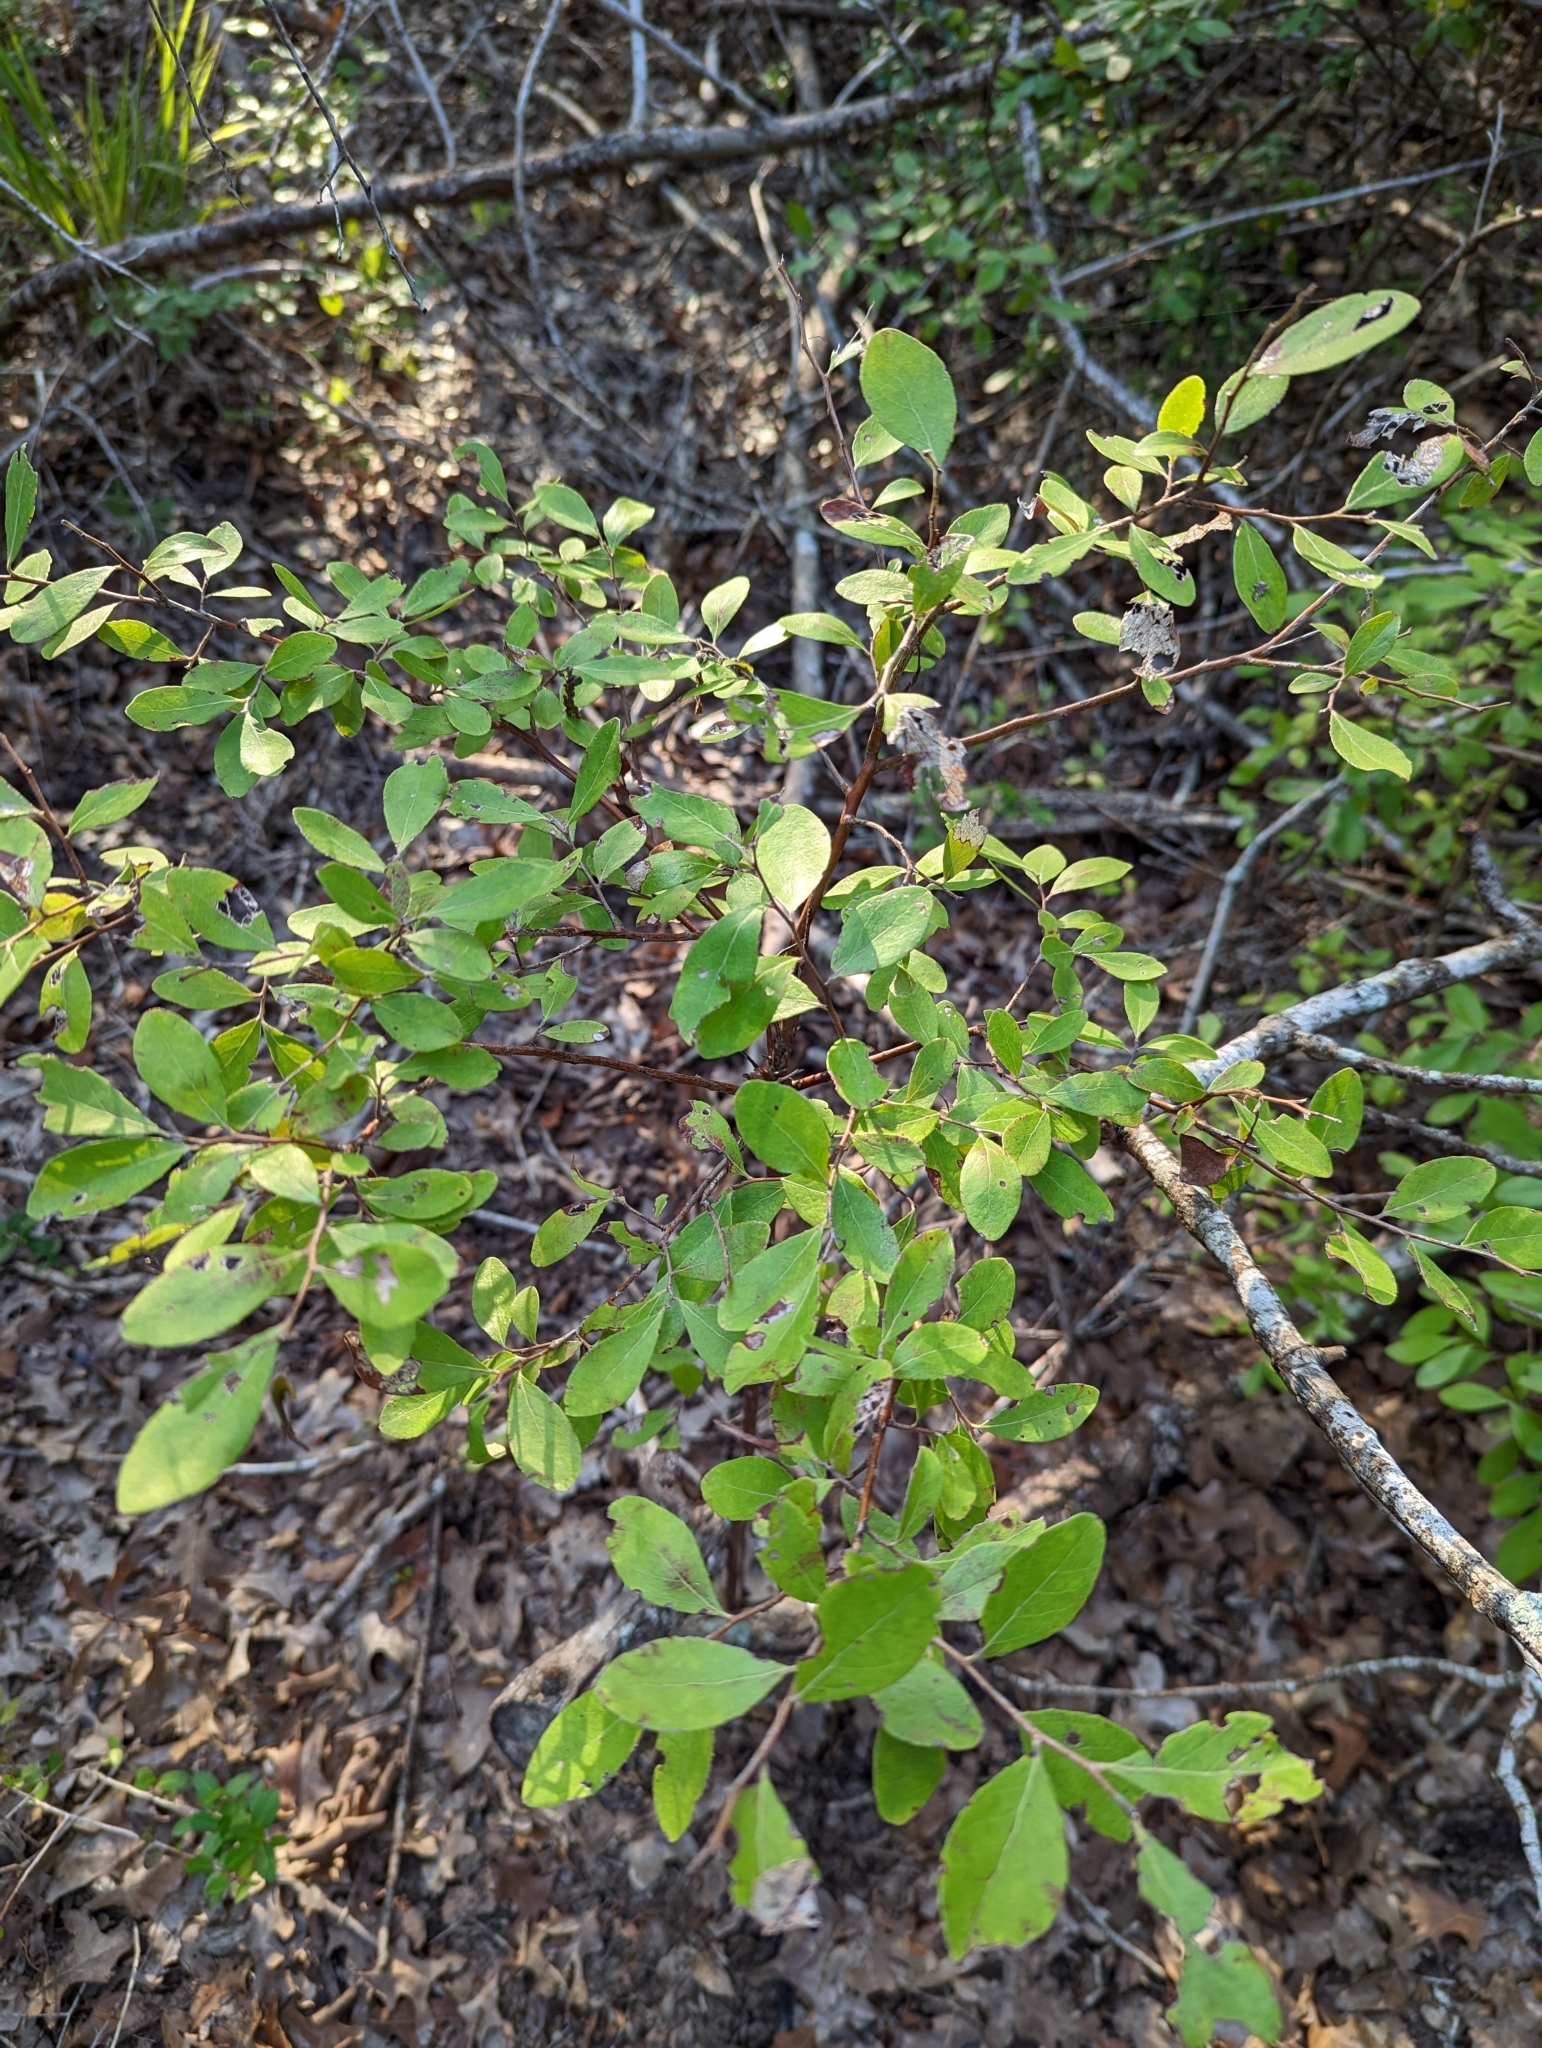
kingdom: Plantae
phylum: Tracheophyta
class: Magnoliopsida
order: Ericales
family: Ericaceae
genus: Vaccinium
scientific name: Vaccinium arboreum
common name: Farkleberry
